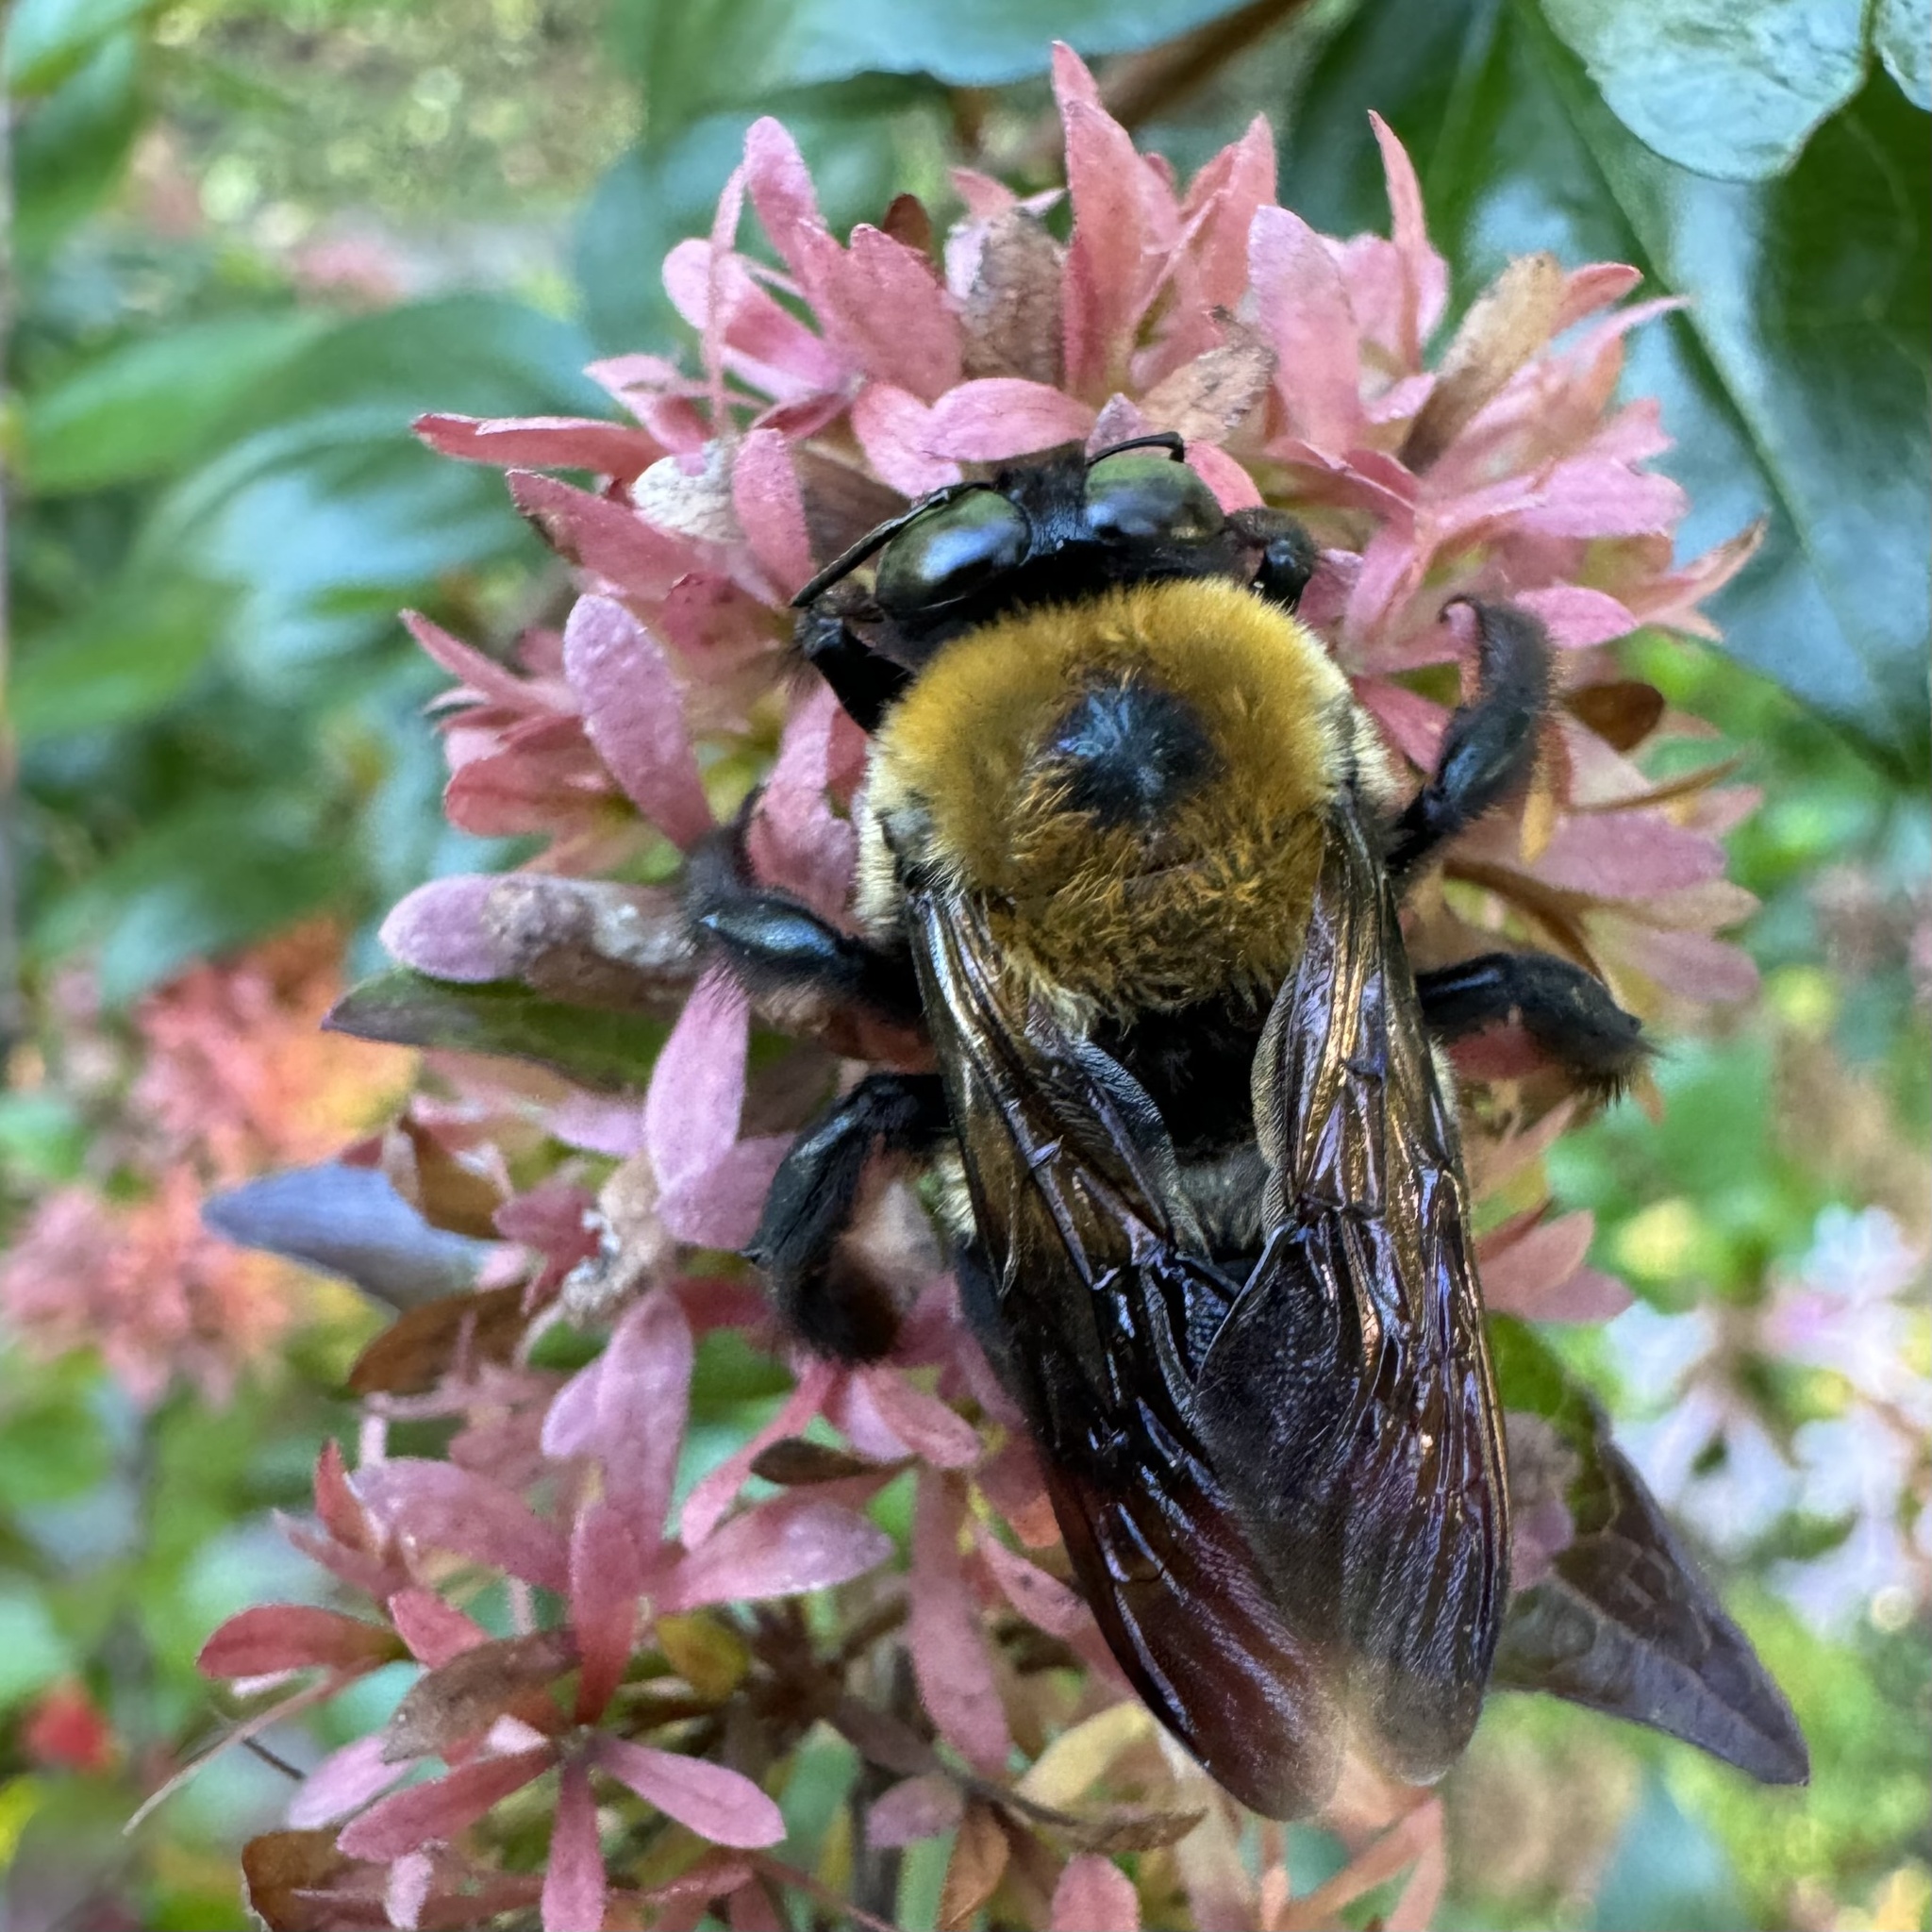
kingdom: Animalia
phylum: Arthropoda
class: Insecta
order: Hymenoptera
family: Apidae
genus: Xylocopa
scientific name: Xylocopa virginica
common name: Carpenter bee
